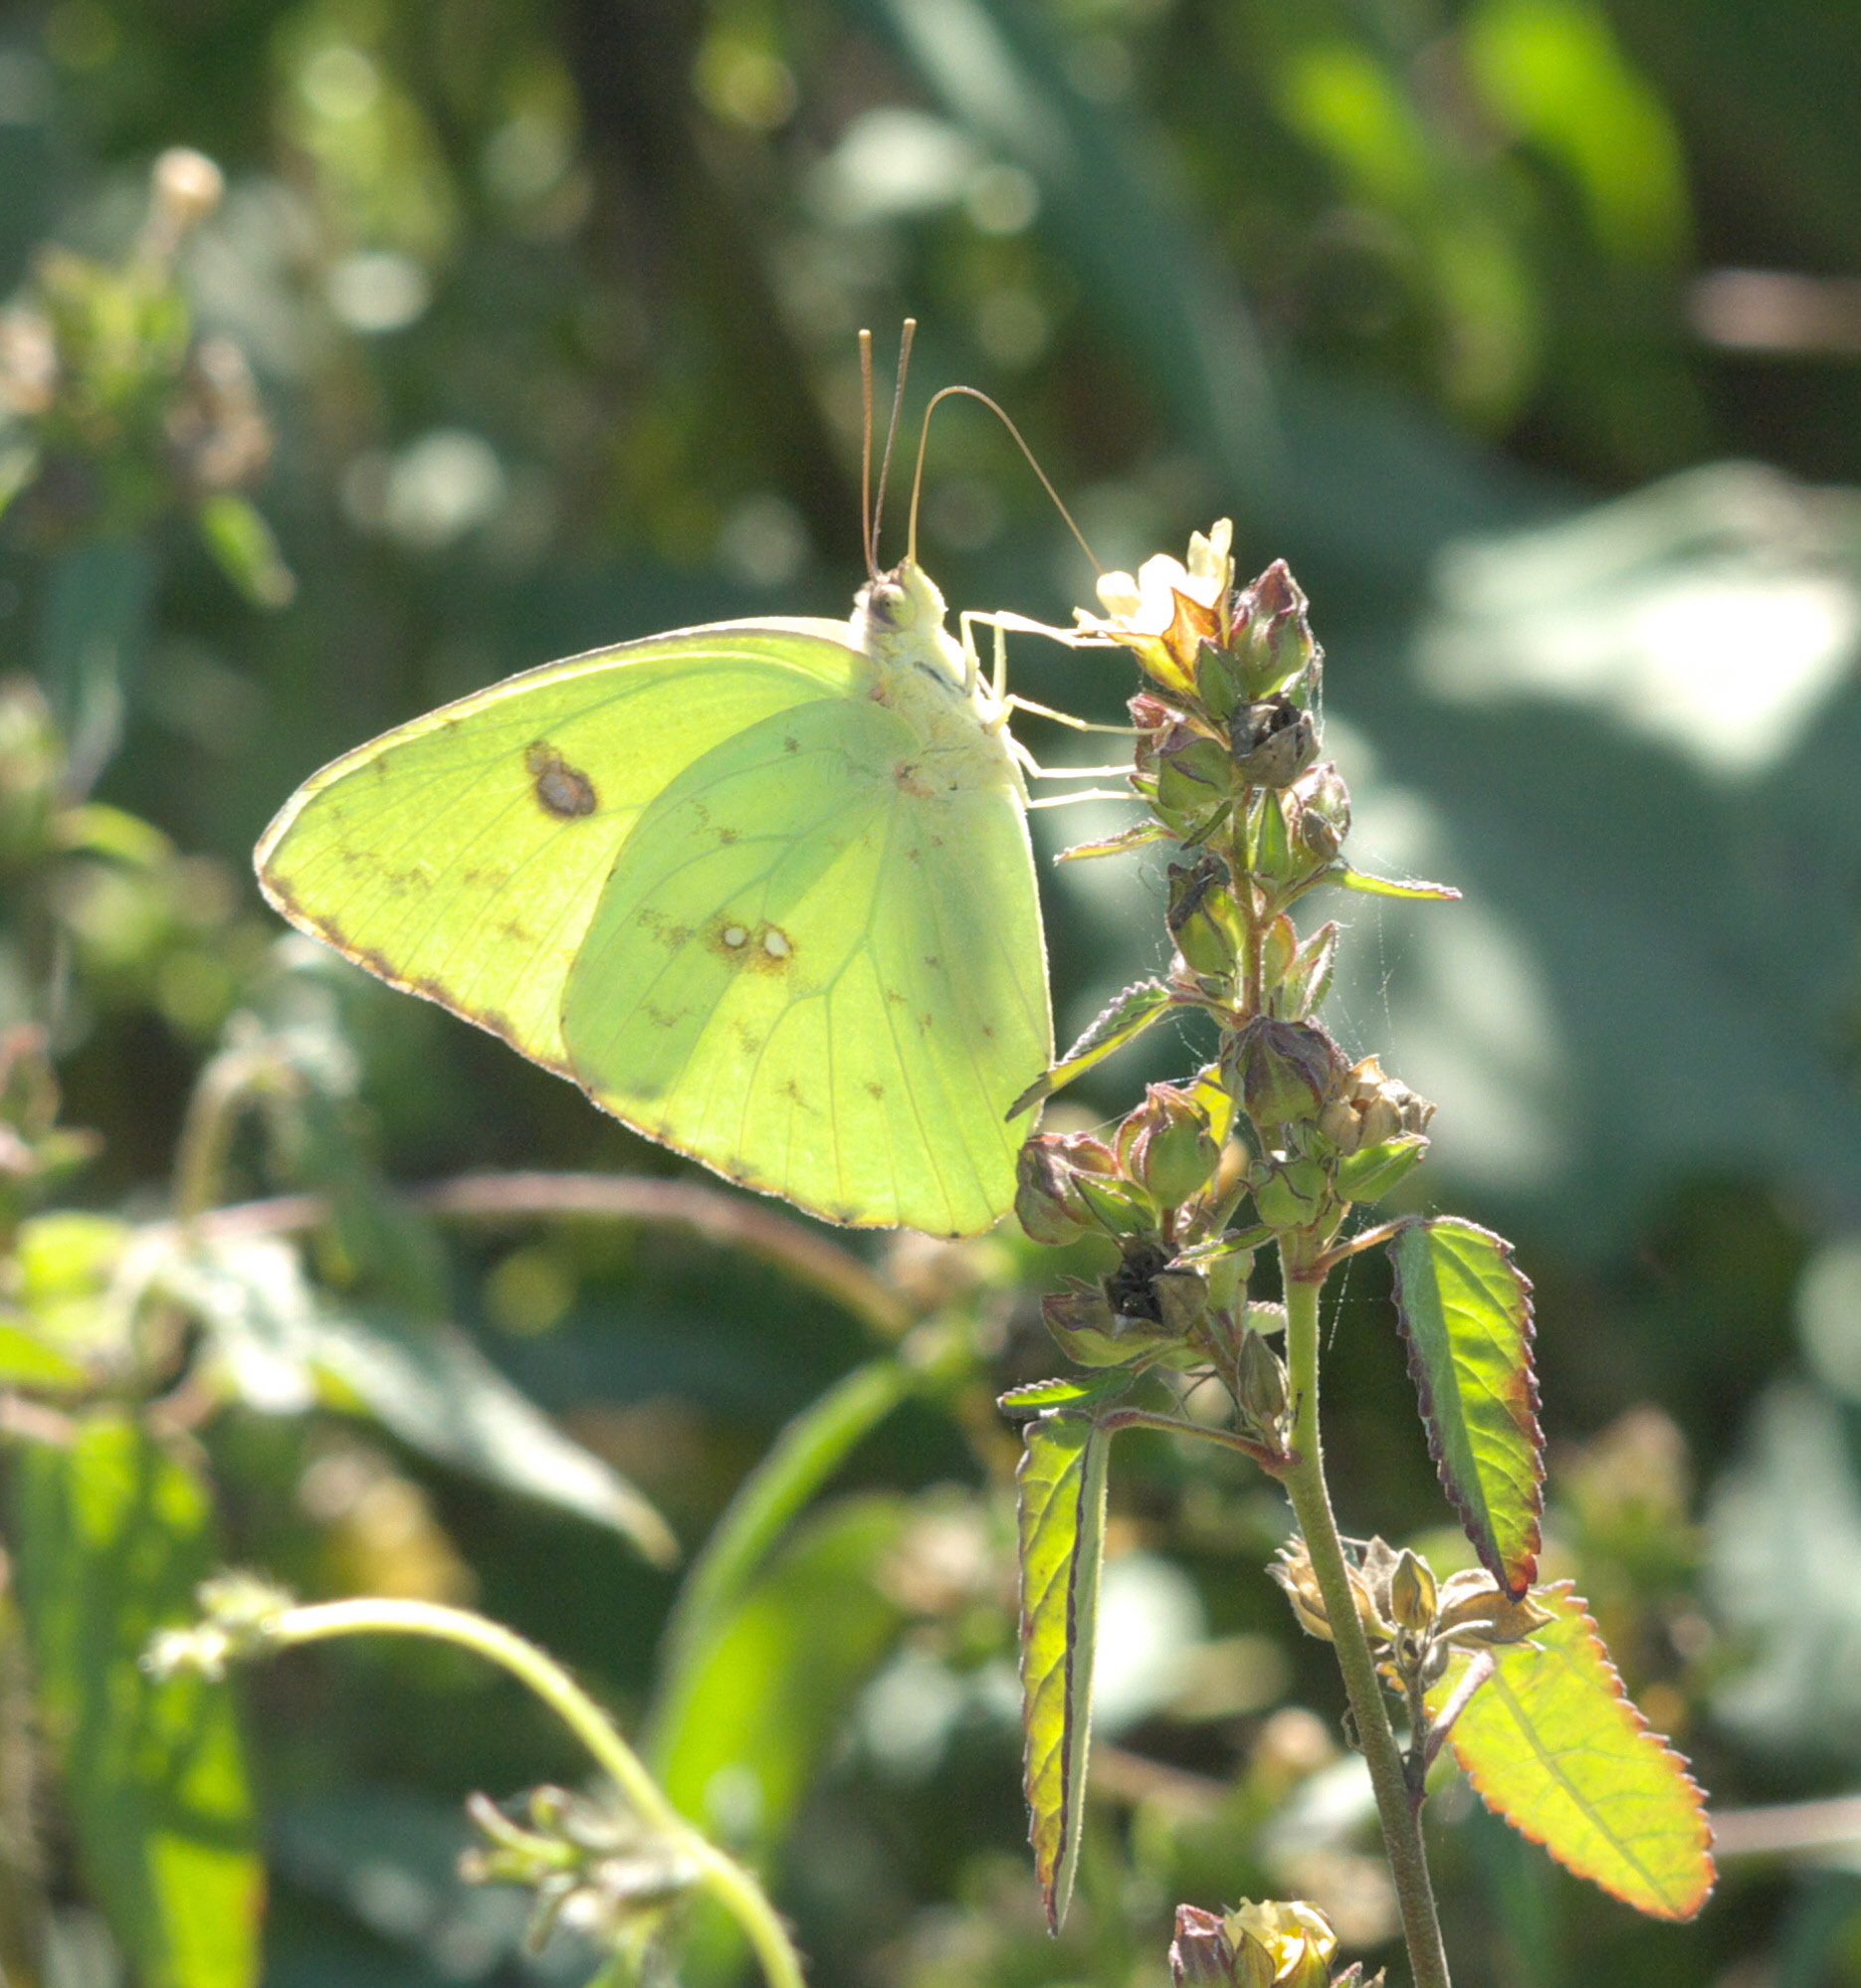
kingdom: Animalia
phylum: Arthropoda
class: Insecta
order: Lepidoptera
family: Pieridae
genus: Phoebis
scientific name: Phoebis sennae
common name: Cloudless sulphur
